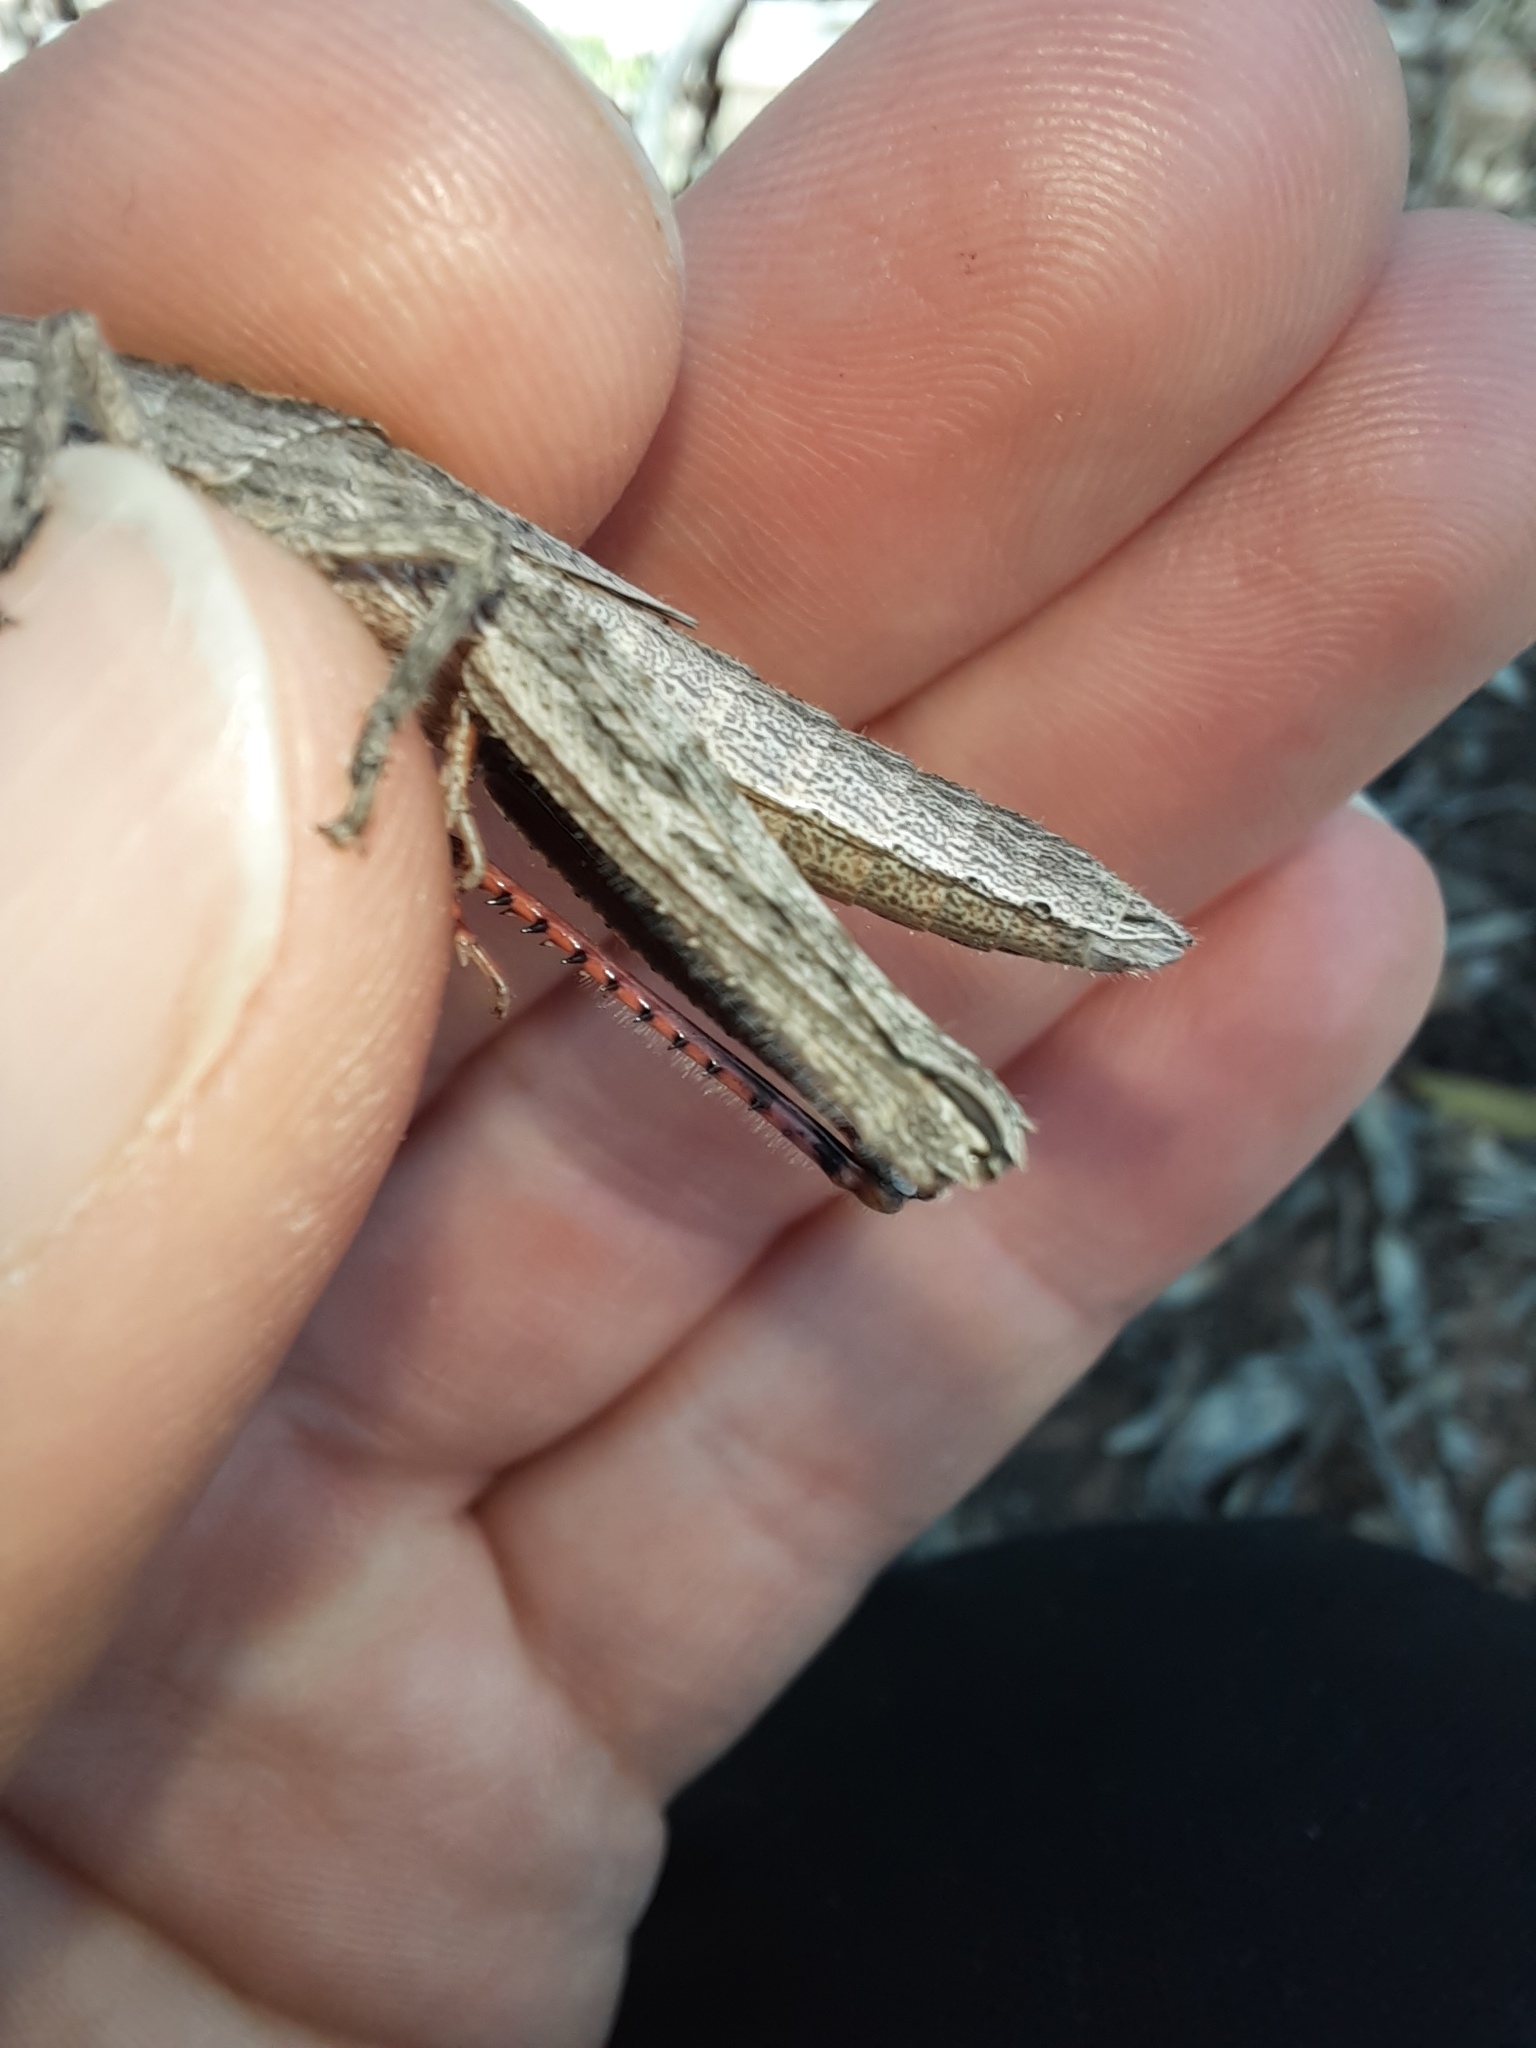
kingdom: Animalia
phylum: Arthropoda
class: Insecta
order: Orthoptera
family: Acrididae
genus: Coryphistes
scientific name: Coryphistes ruricola
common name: Bark-mimicking grasshopper
